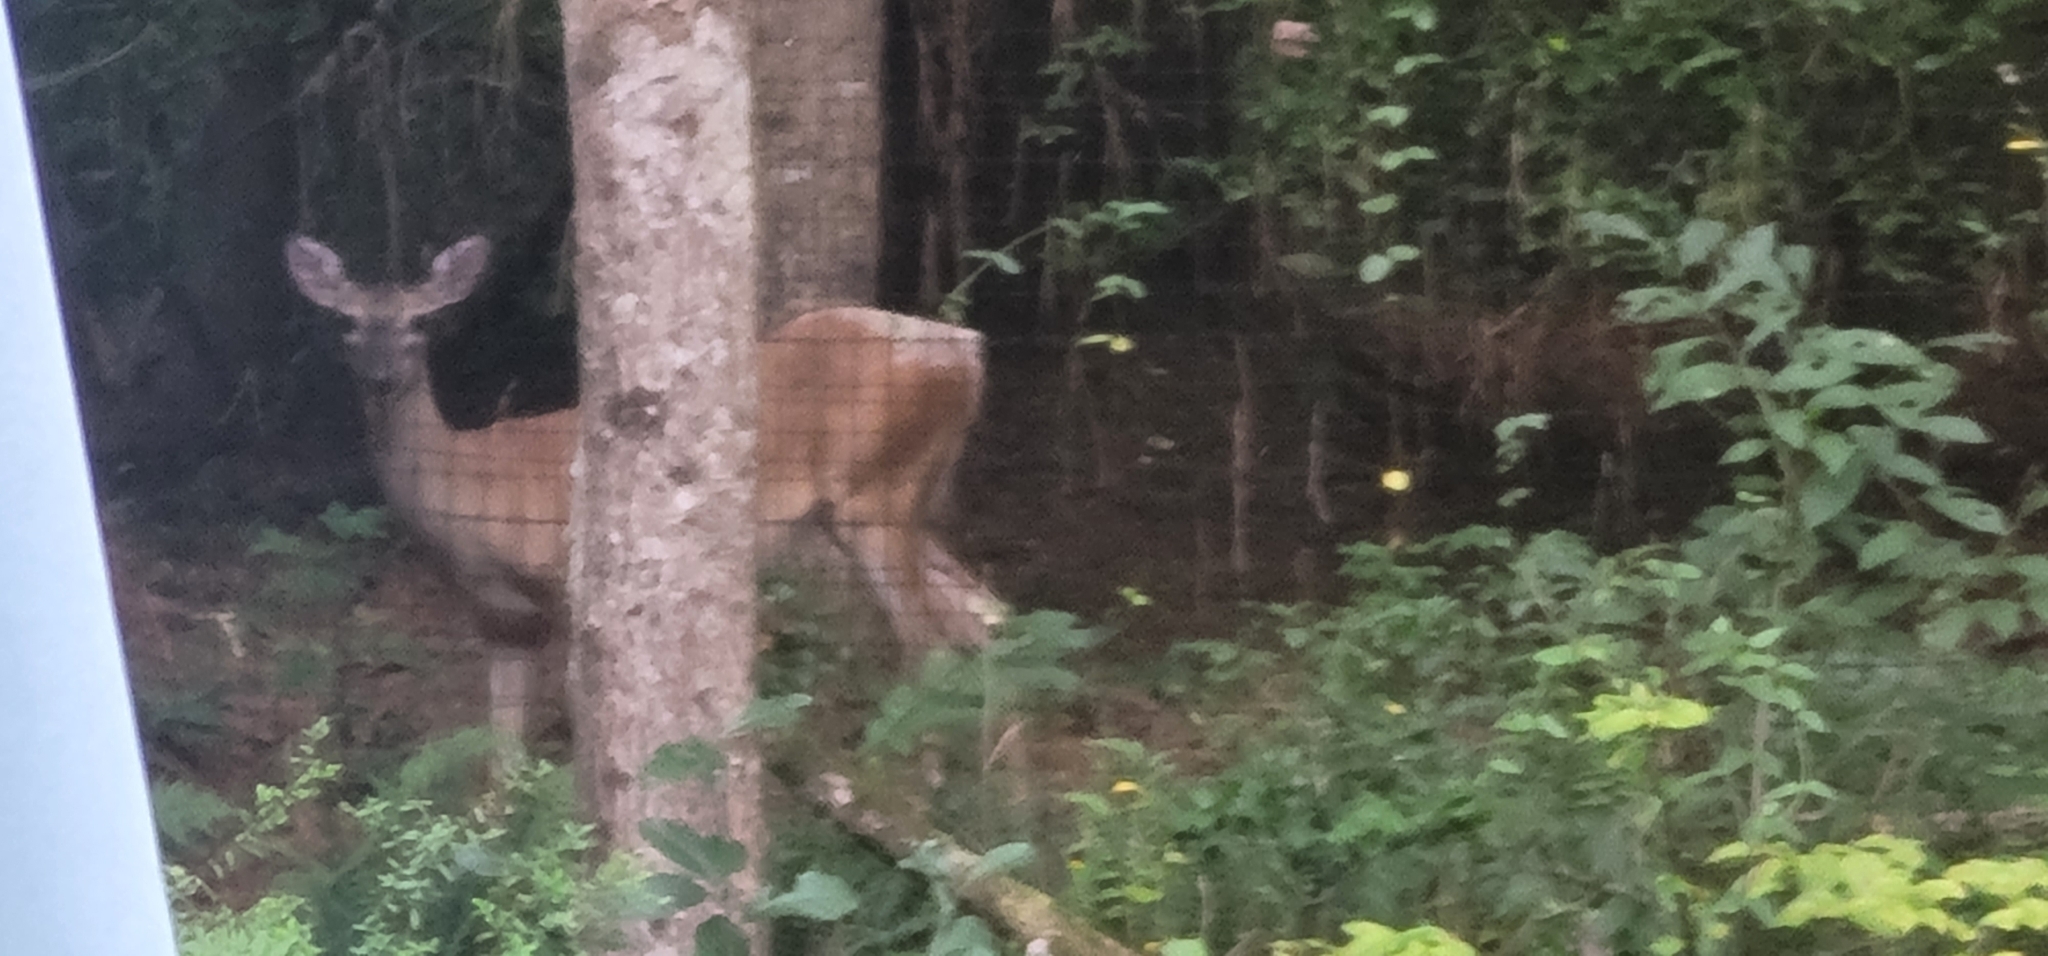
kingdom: Animalia
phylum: Chordata
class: Mammalia
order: Artiodactyla
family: Cervidae
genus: Odocoileus
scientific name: Odocoileus virginianus
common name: White-tailed deer
